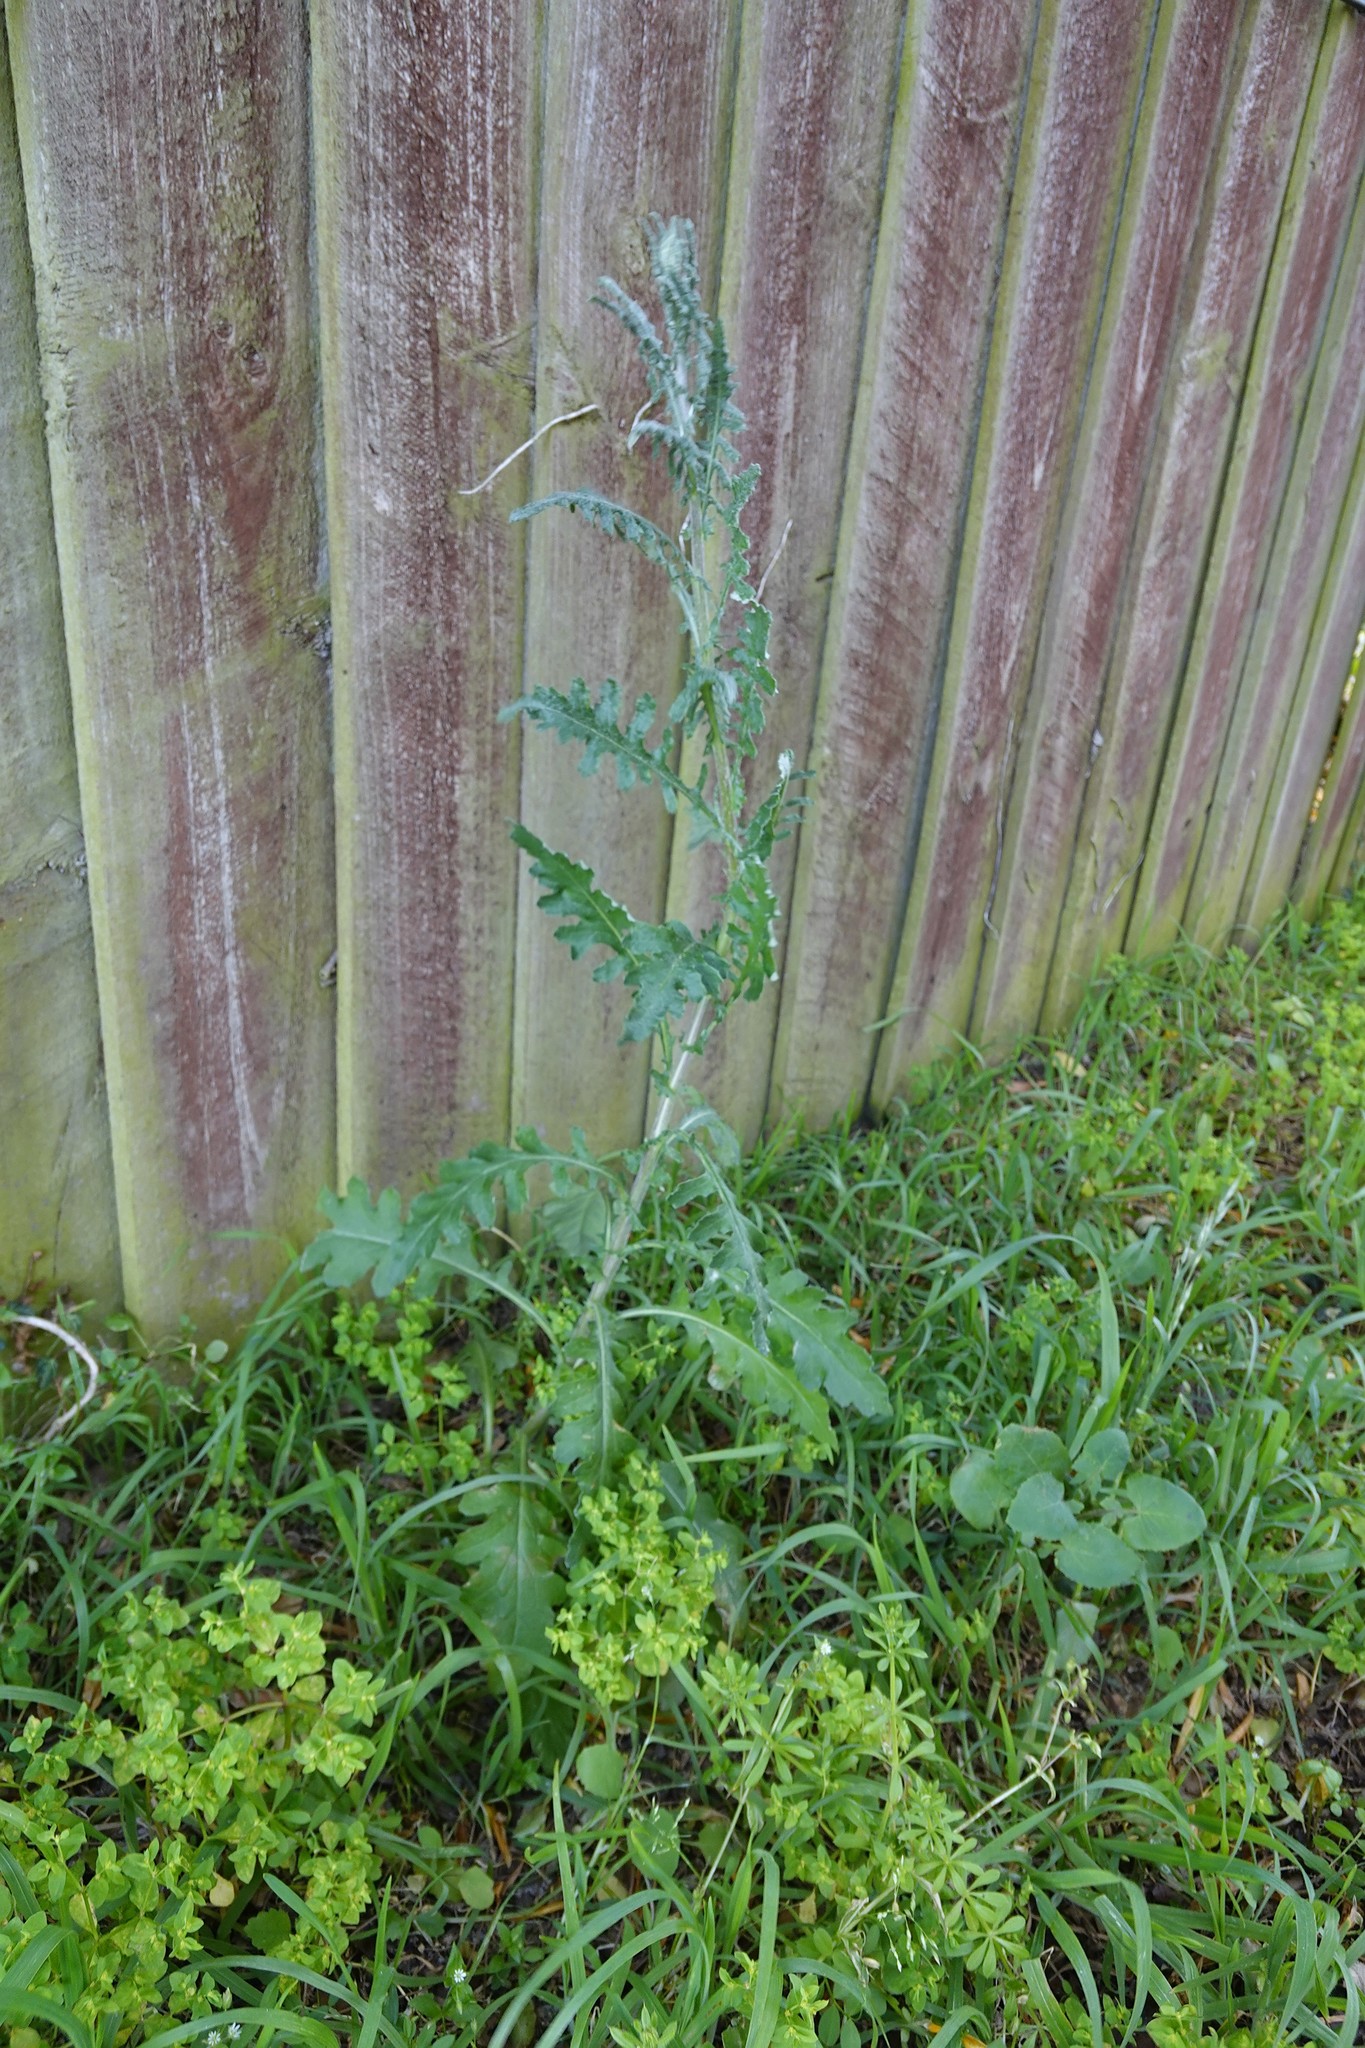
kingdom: Plantae
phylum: Tracheophyta
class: Magnoliopsida
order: Asterales
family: Asteraceae
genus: Senecio
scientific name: Senecio glomeratus
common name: Cutleaf burnweed
